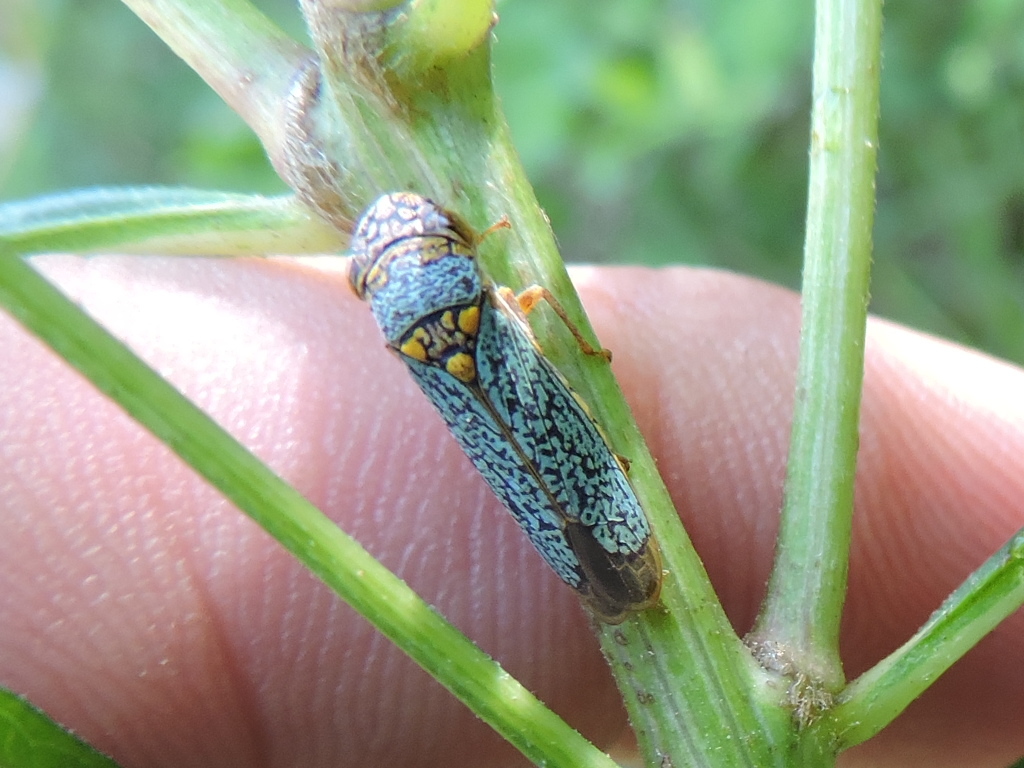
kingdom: Animalia
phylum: Arthropoda
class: Insecta
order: Hemiptera
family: Cicadellidae
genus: Oncometopia
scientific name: Oncometopia orbona
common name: Broad-headed sharpshooter
